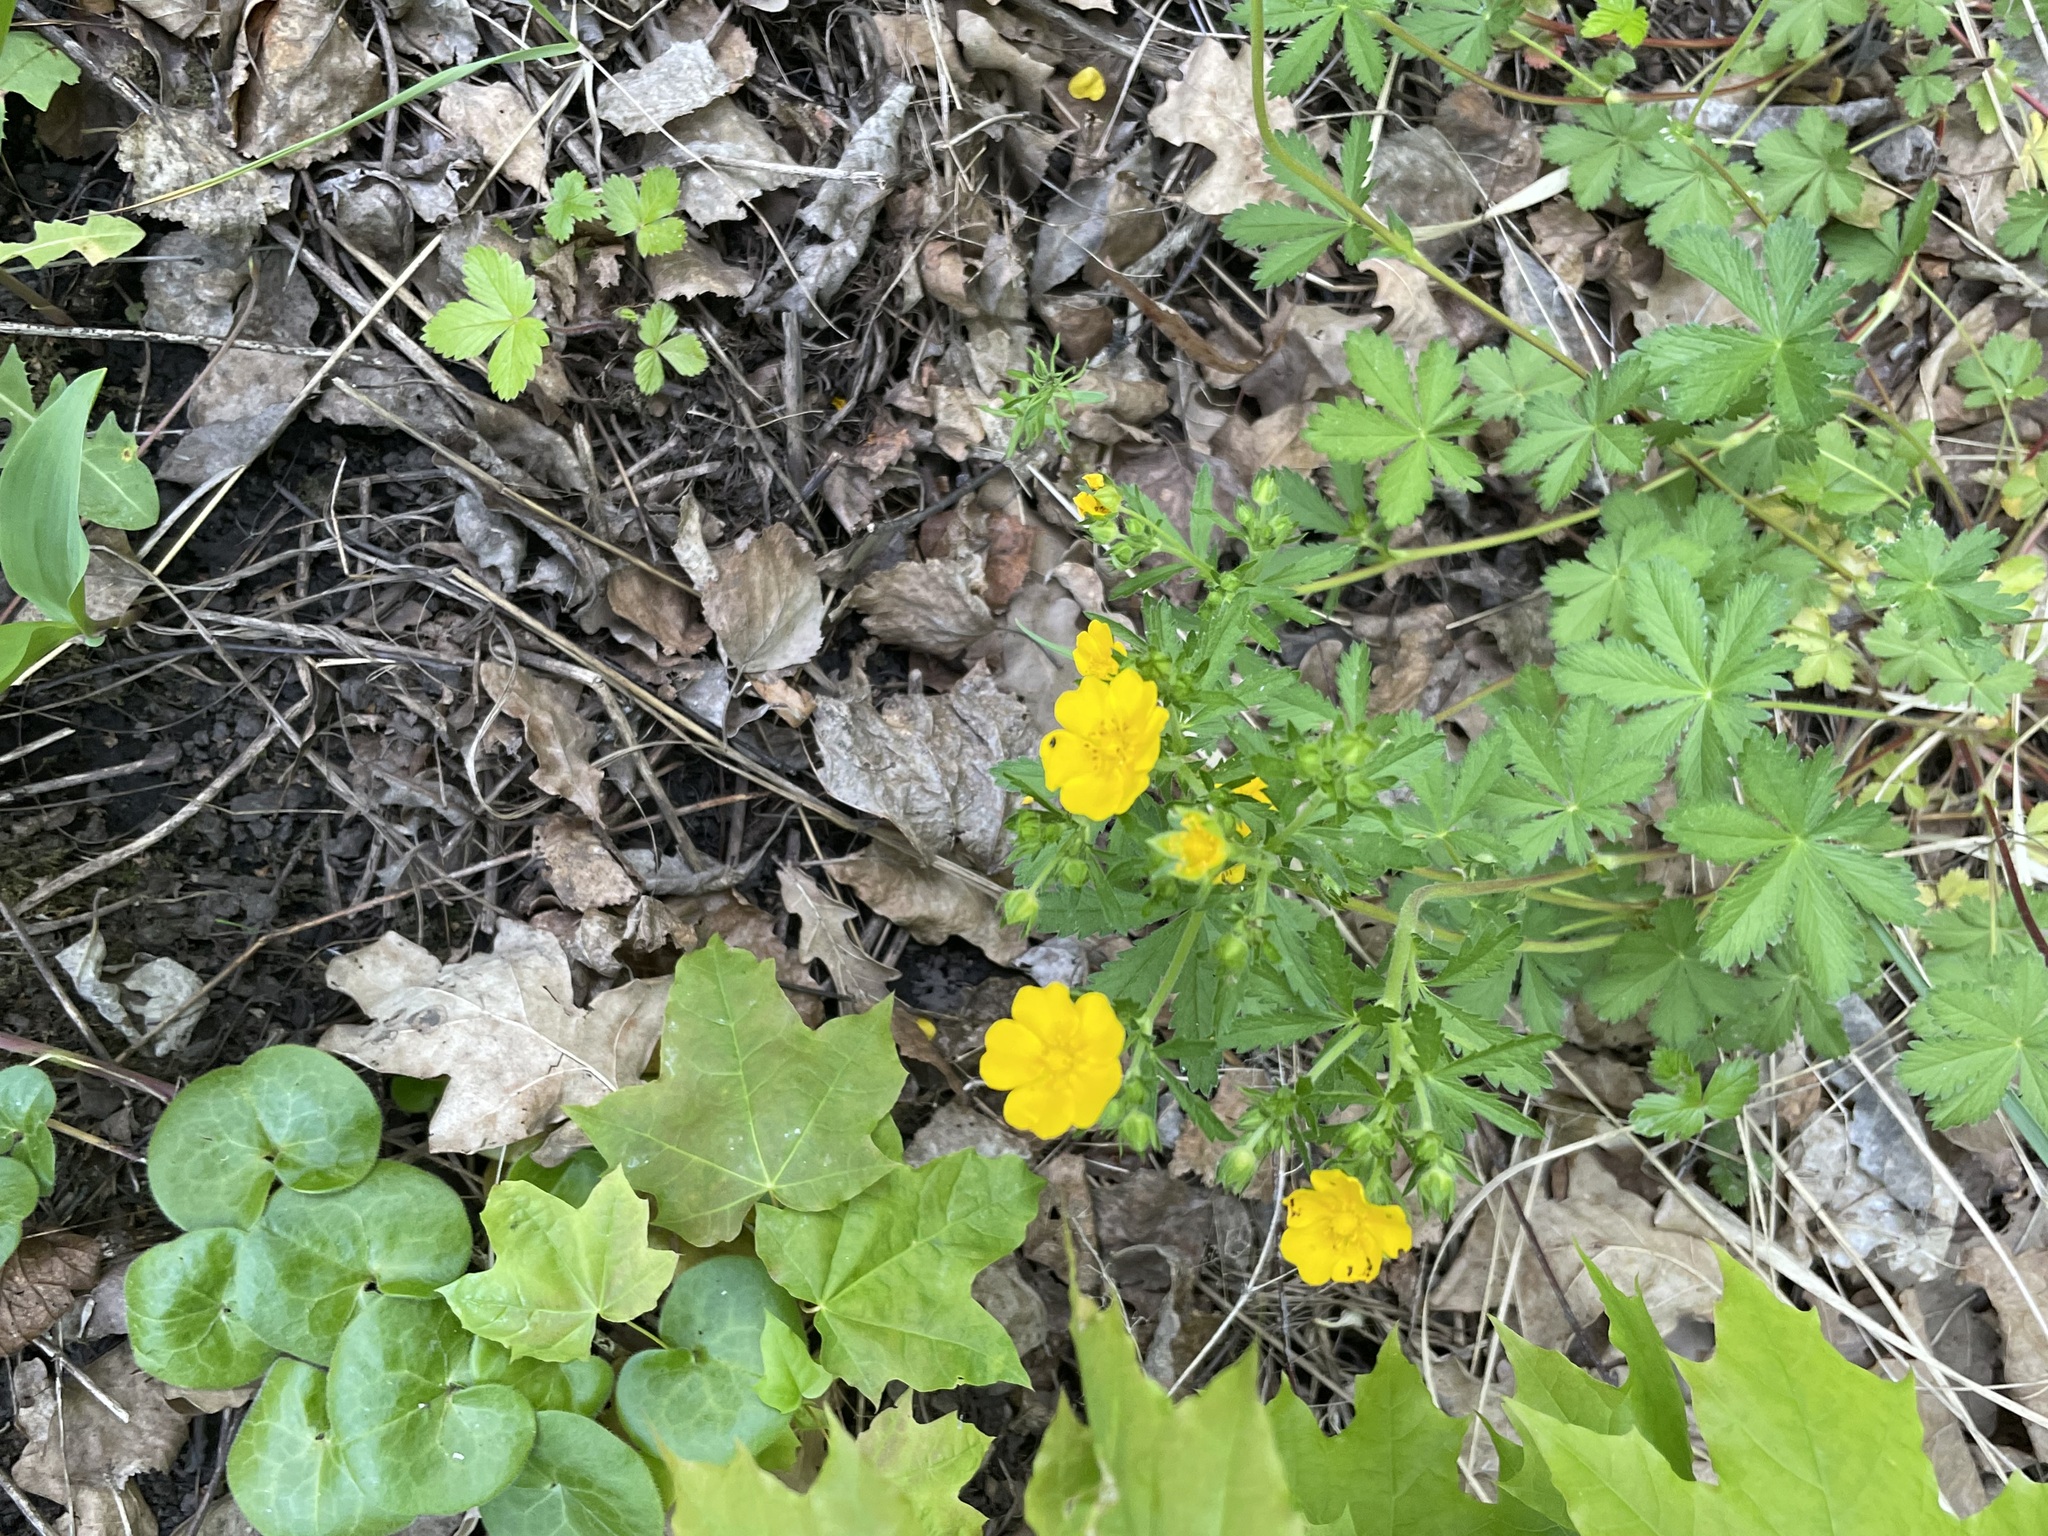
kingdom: Plantae
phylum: Tracheophyta
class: Magnoliopsida
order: Rosales
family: Rosaceae
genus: Potentilla
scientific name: Potentilla thuringiaca
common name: European cinquefoil
